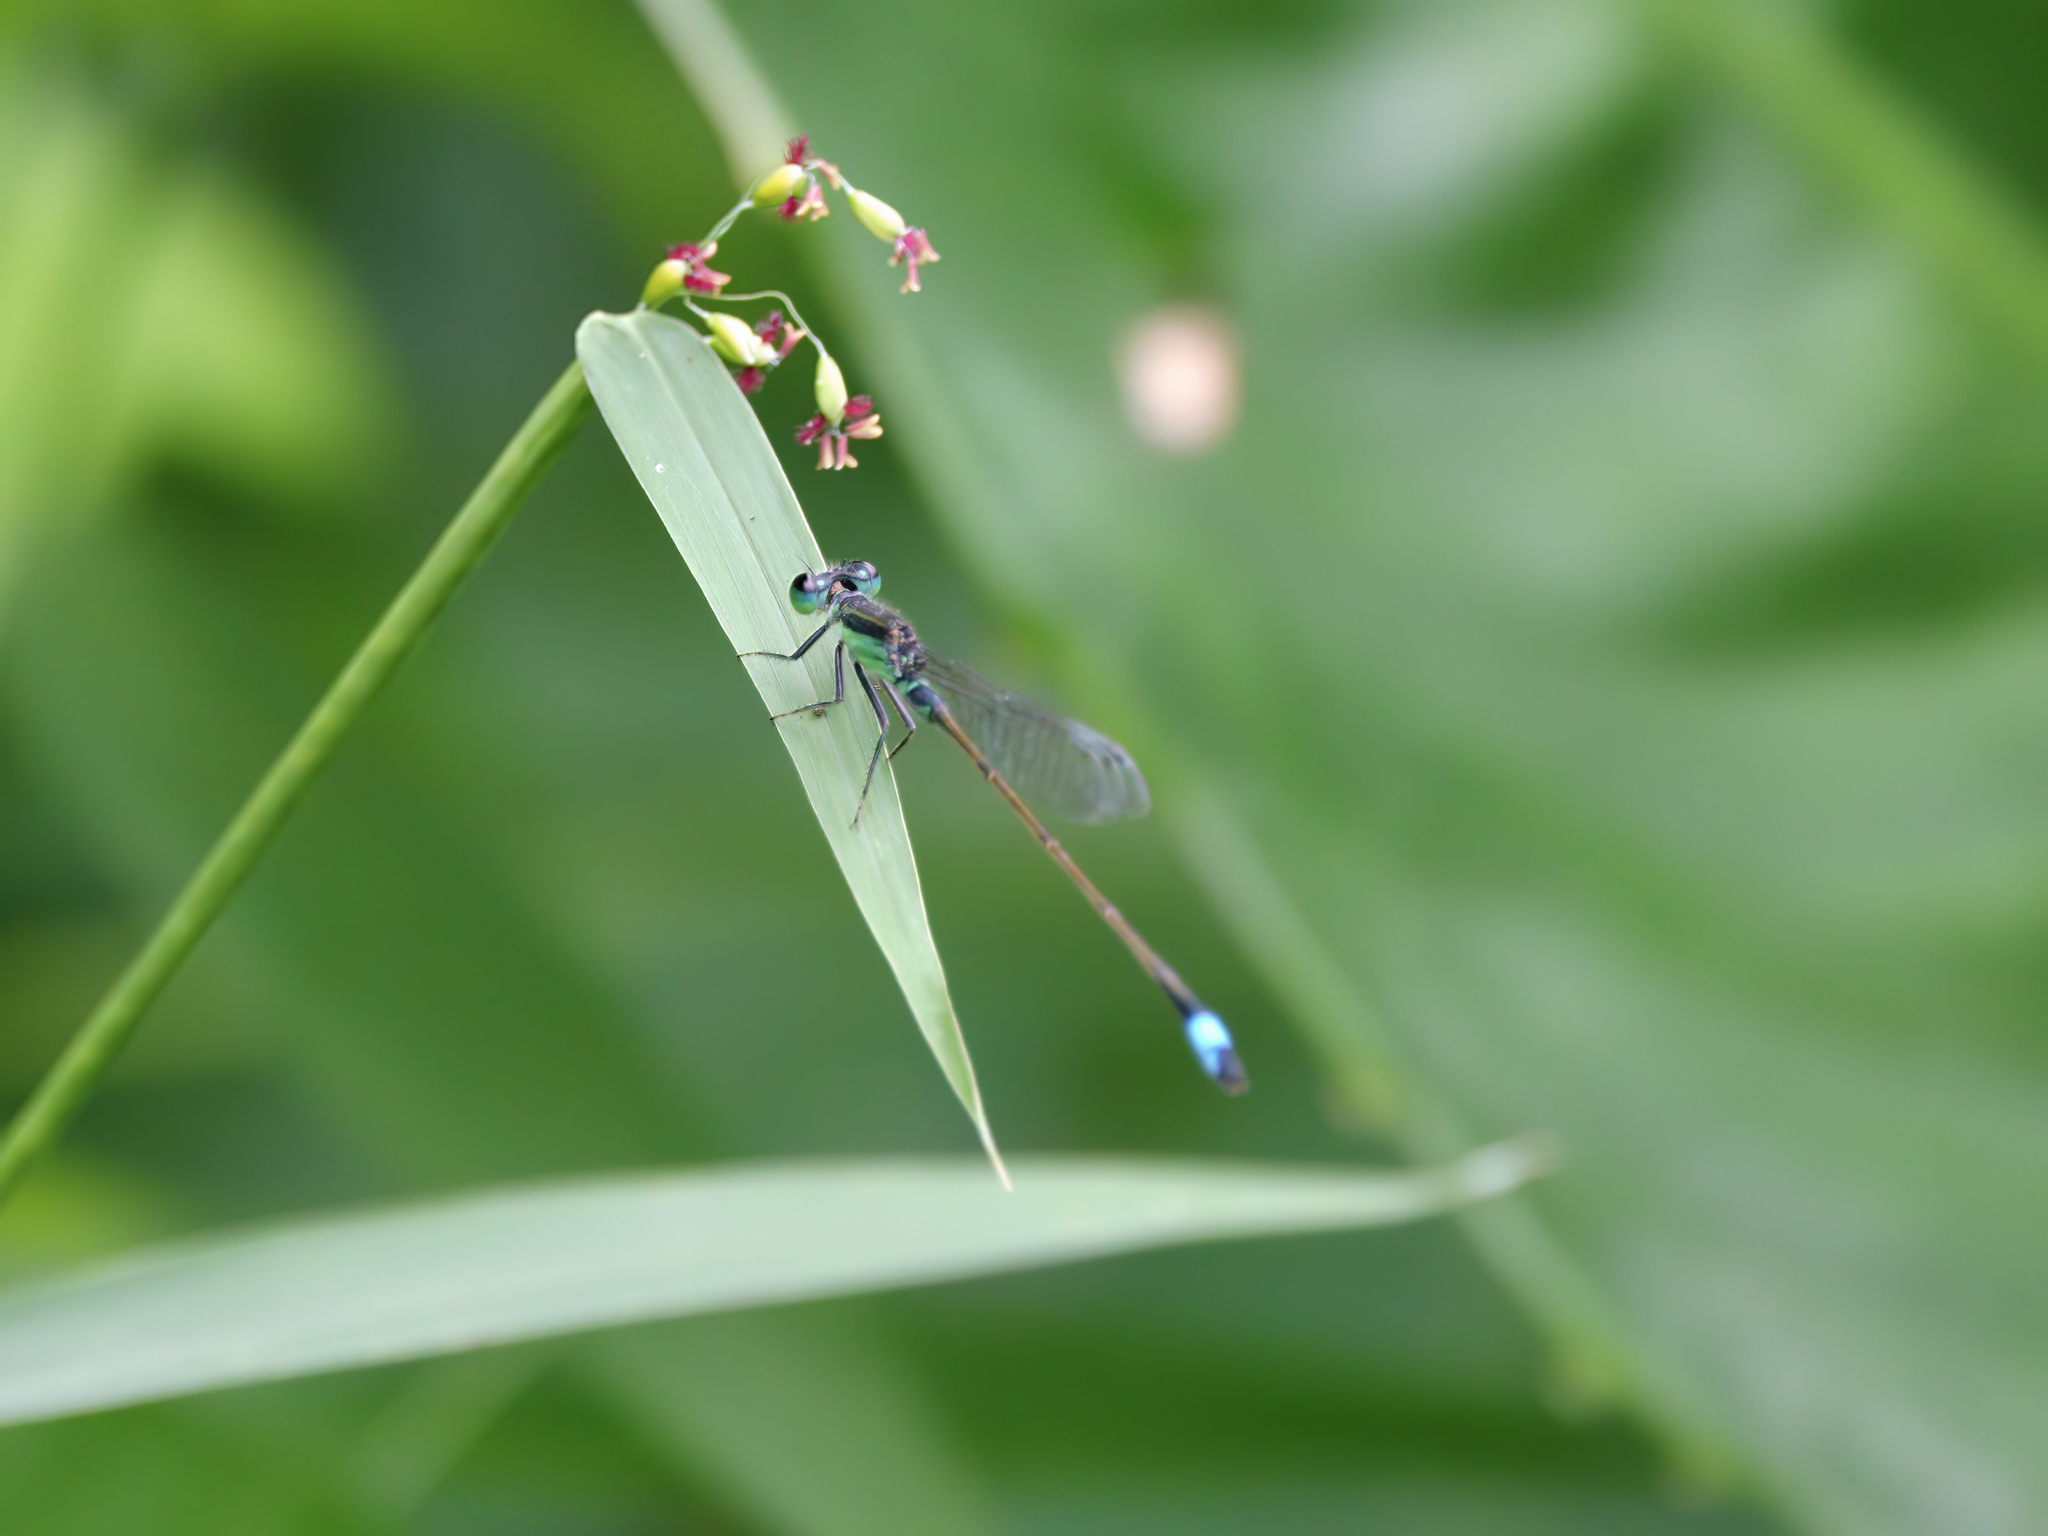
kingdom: Animalia
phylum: Arthropoda
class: Insecta
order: Odonata
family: Coenagrionidae
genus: Ischnura
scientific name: Ischnura senegalensis
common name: Tropical bluetail
